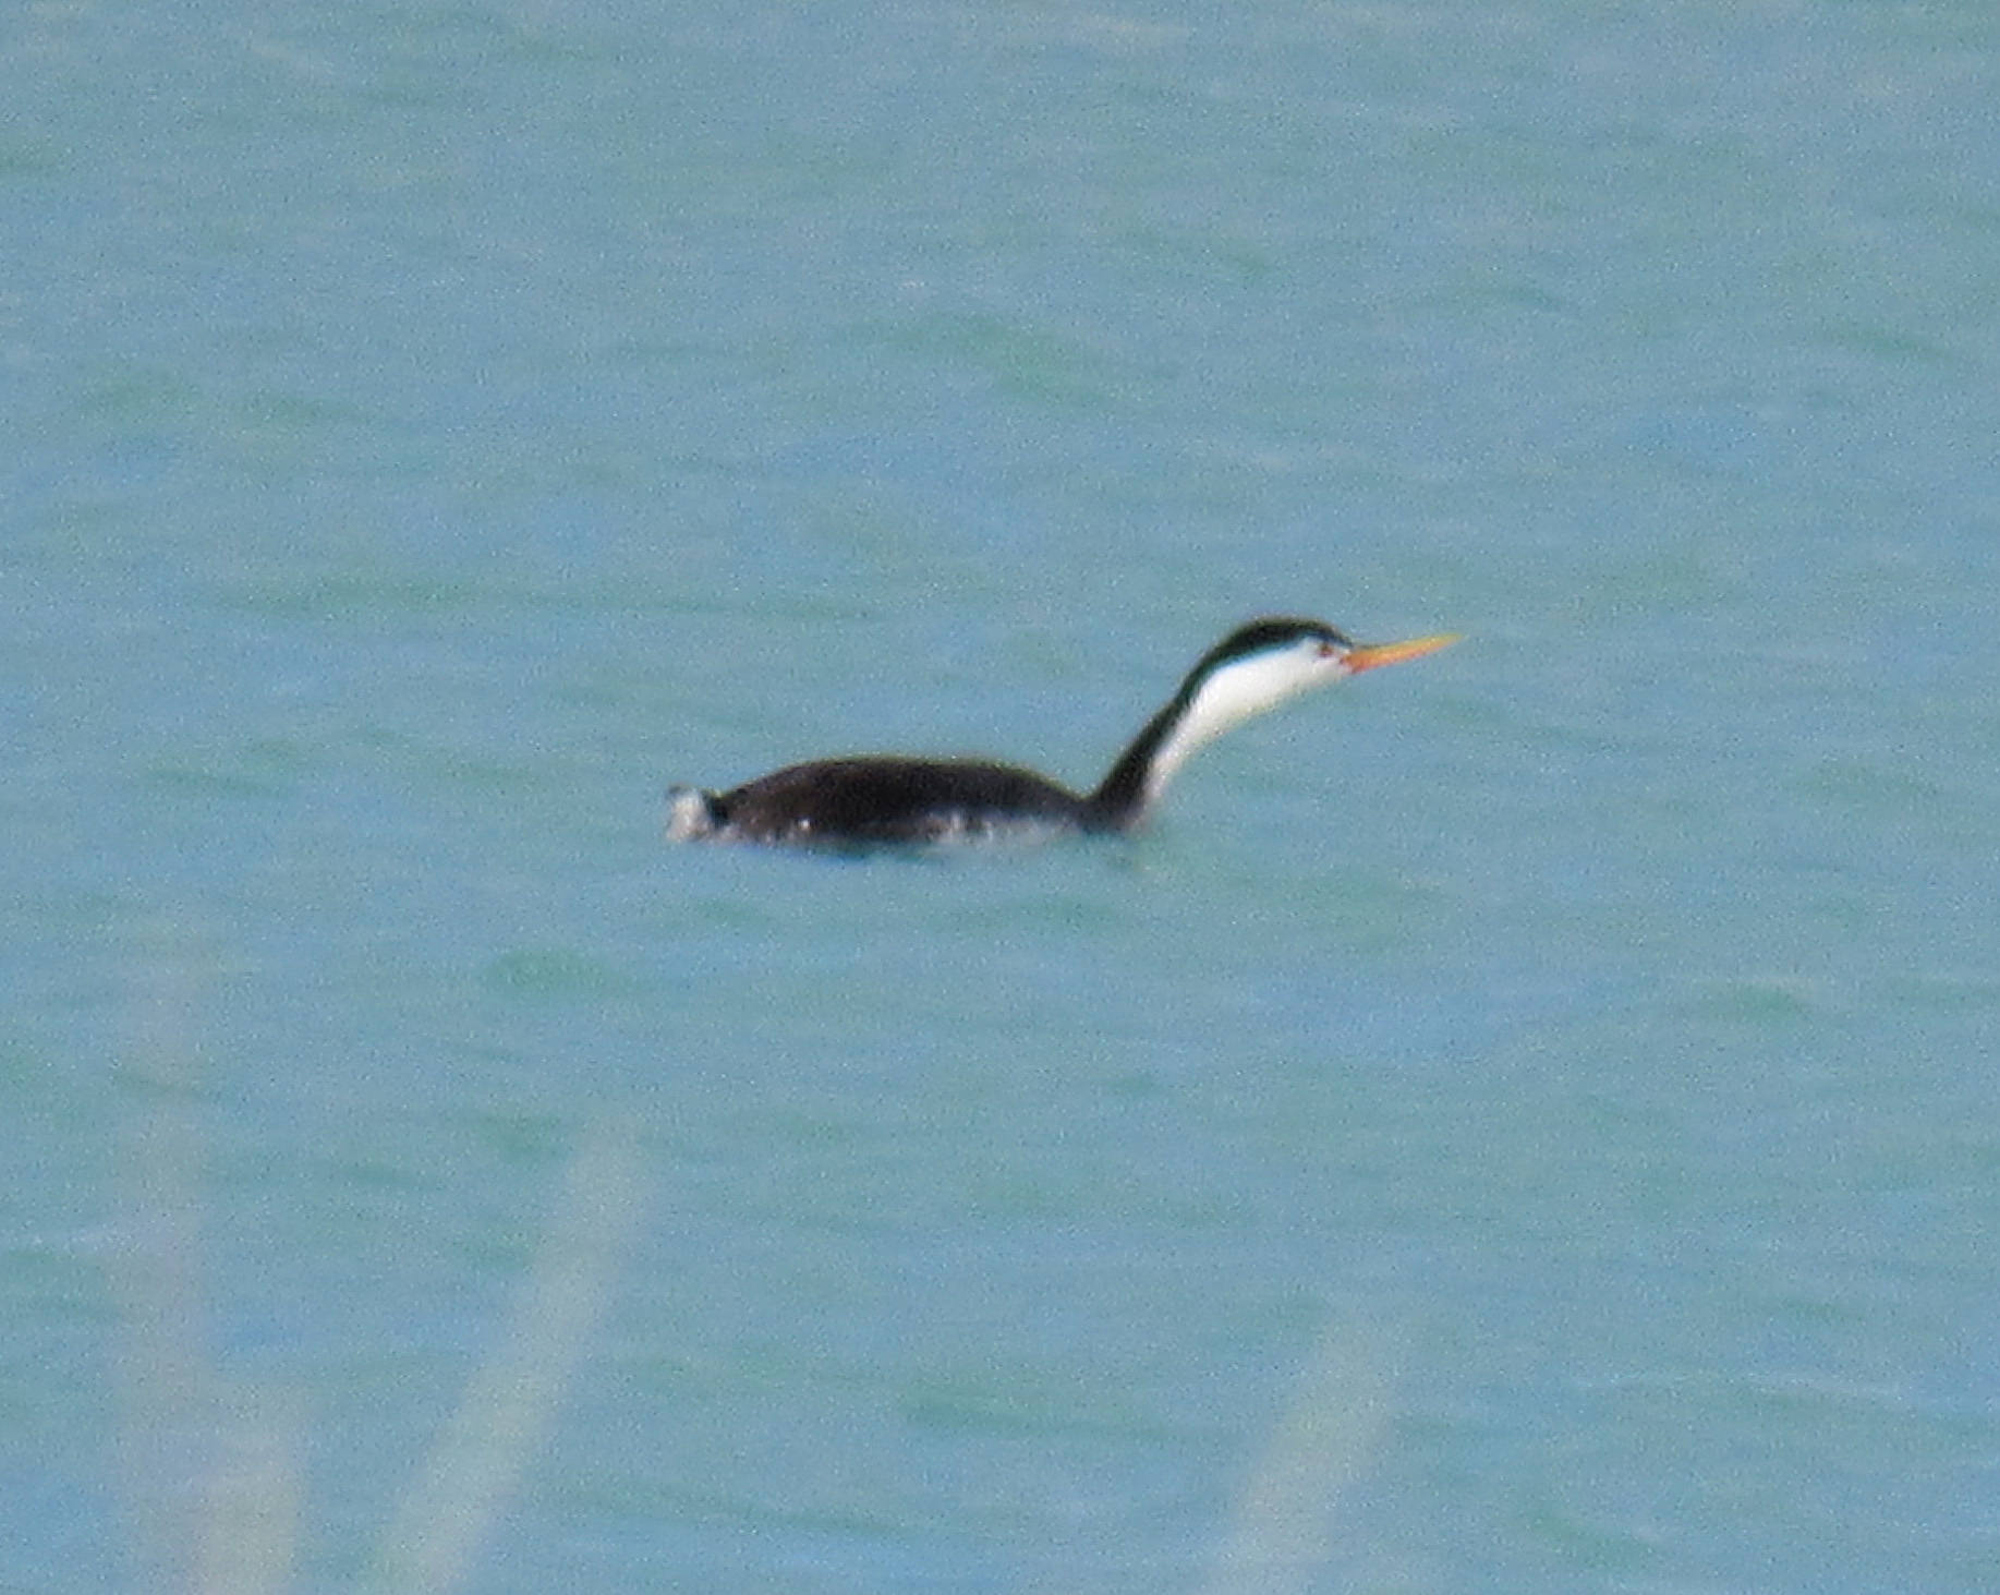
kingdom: Animalia
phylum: Chordata
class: Aves
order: Podicipediformes
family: Podicipedidae
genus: Aechmophorus
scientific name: Aechmophorus clarkii
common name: Clark's grebe
